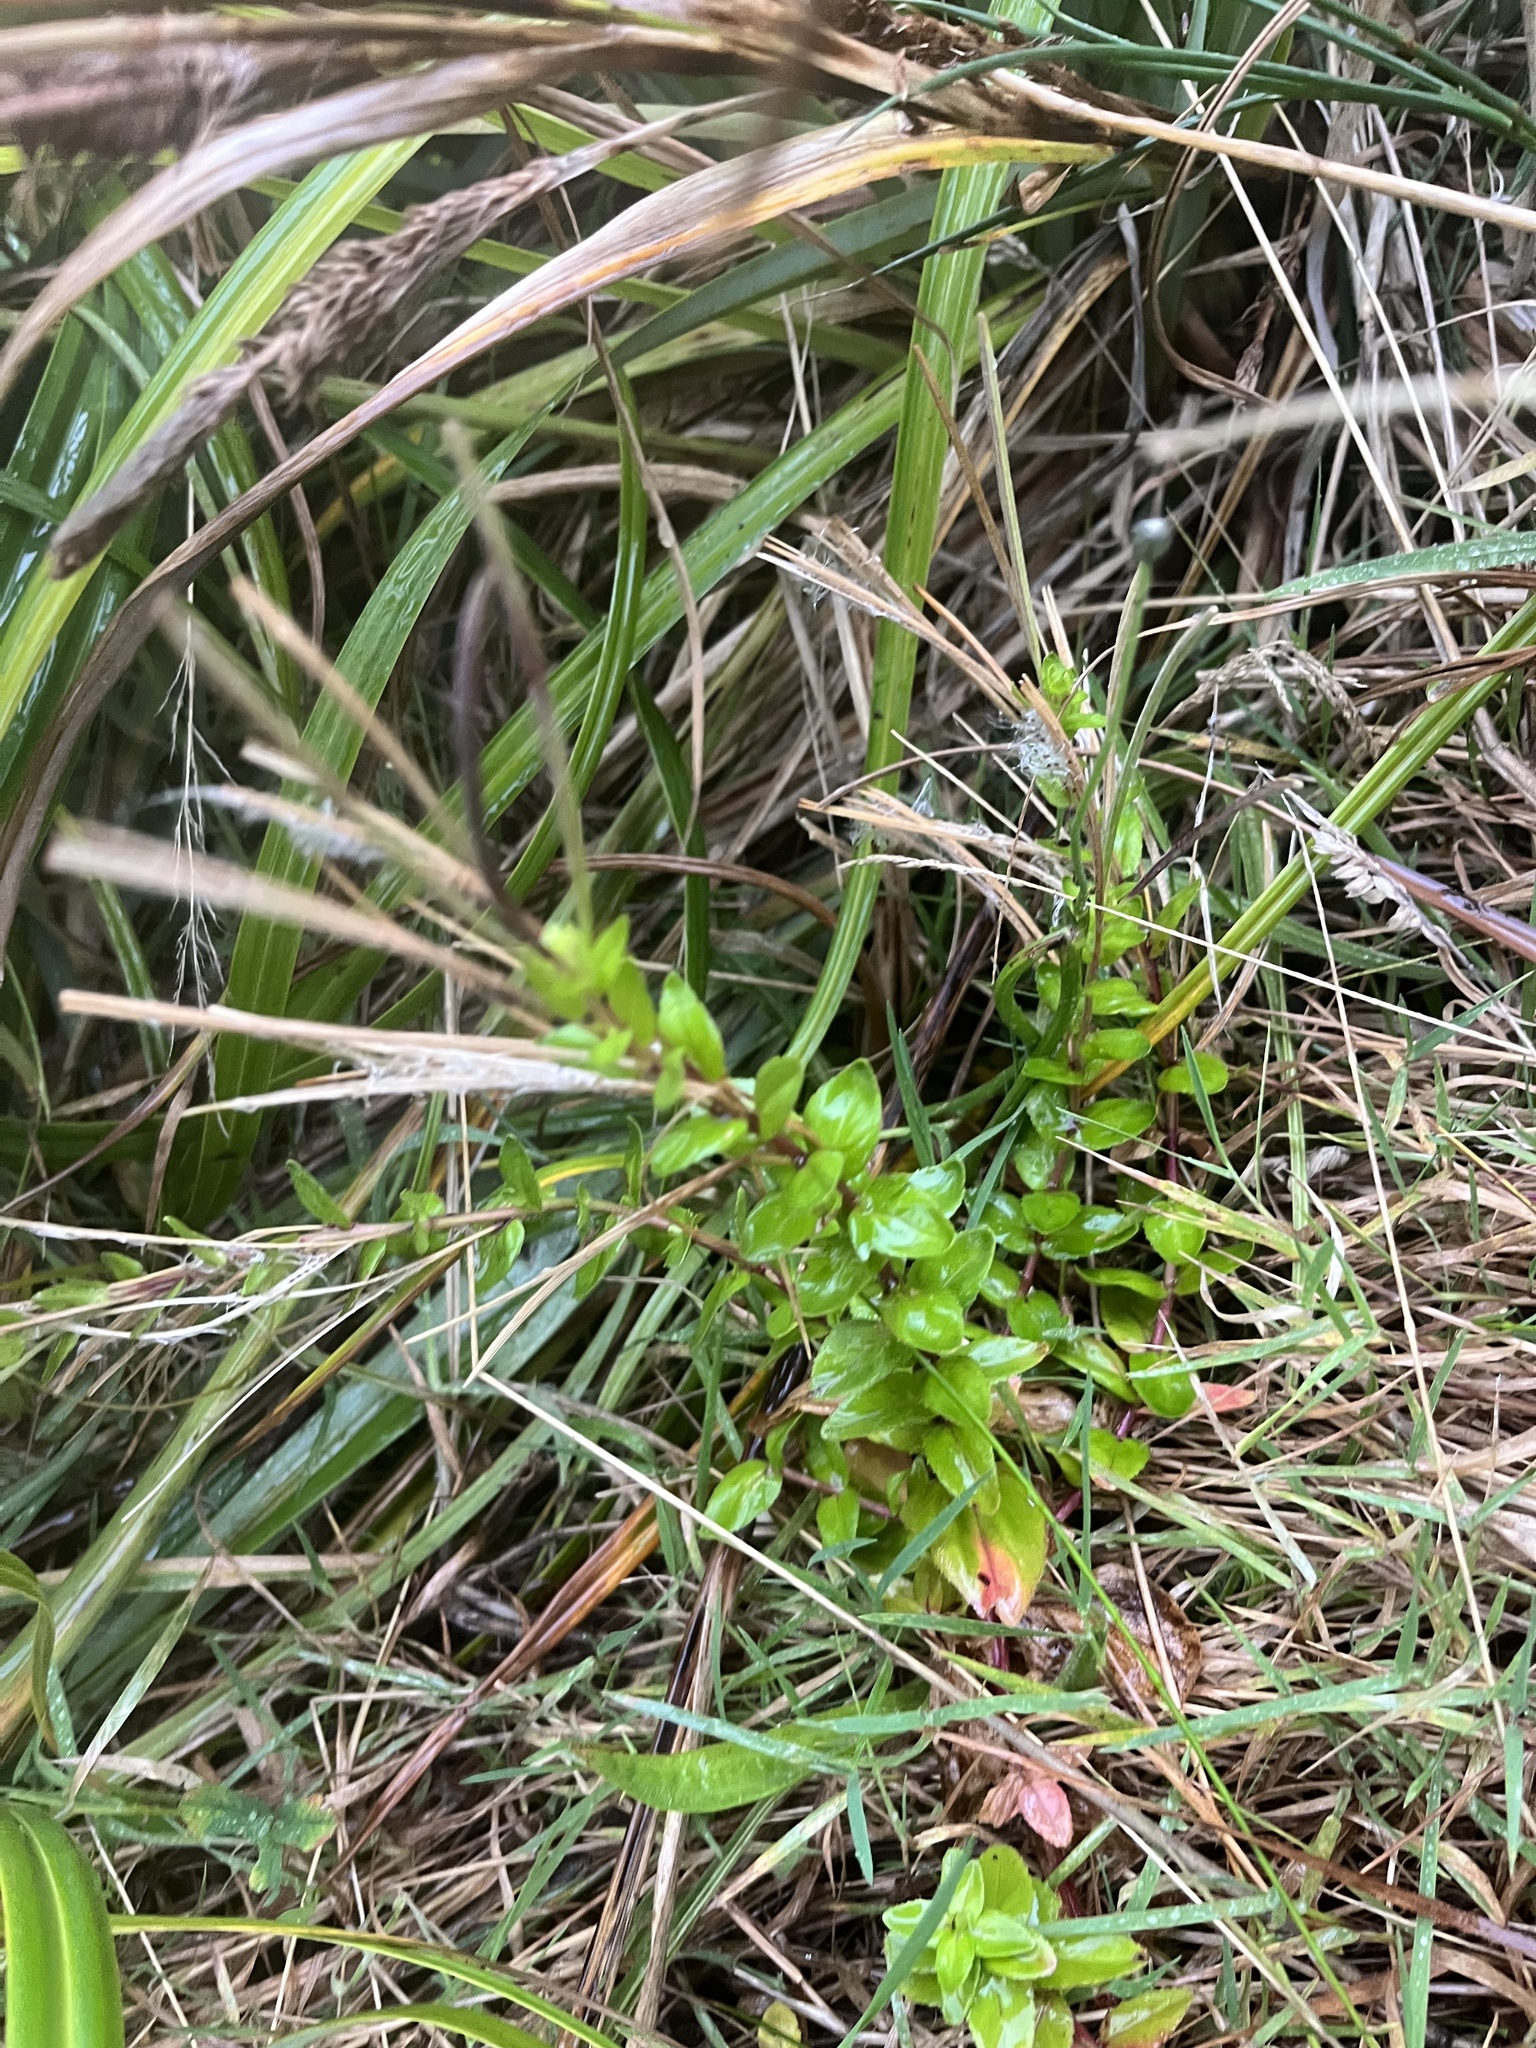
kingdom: Plantae
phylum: Tracheophyta
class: Magnoliopsida
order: Myrtales
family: Onagraceae
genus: Epilobium
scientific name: Epilobium billardierianum
